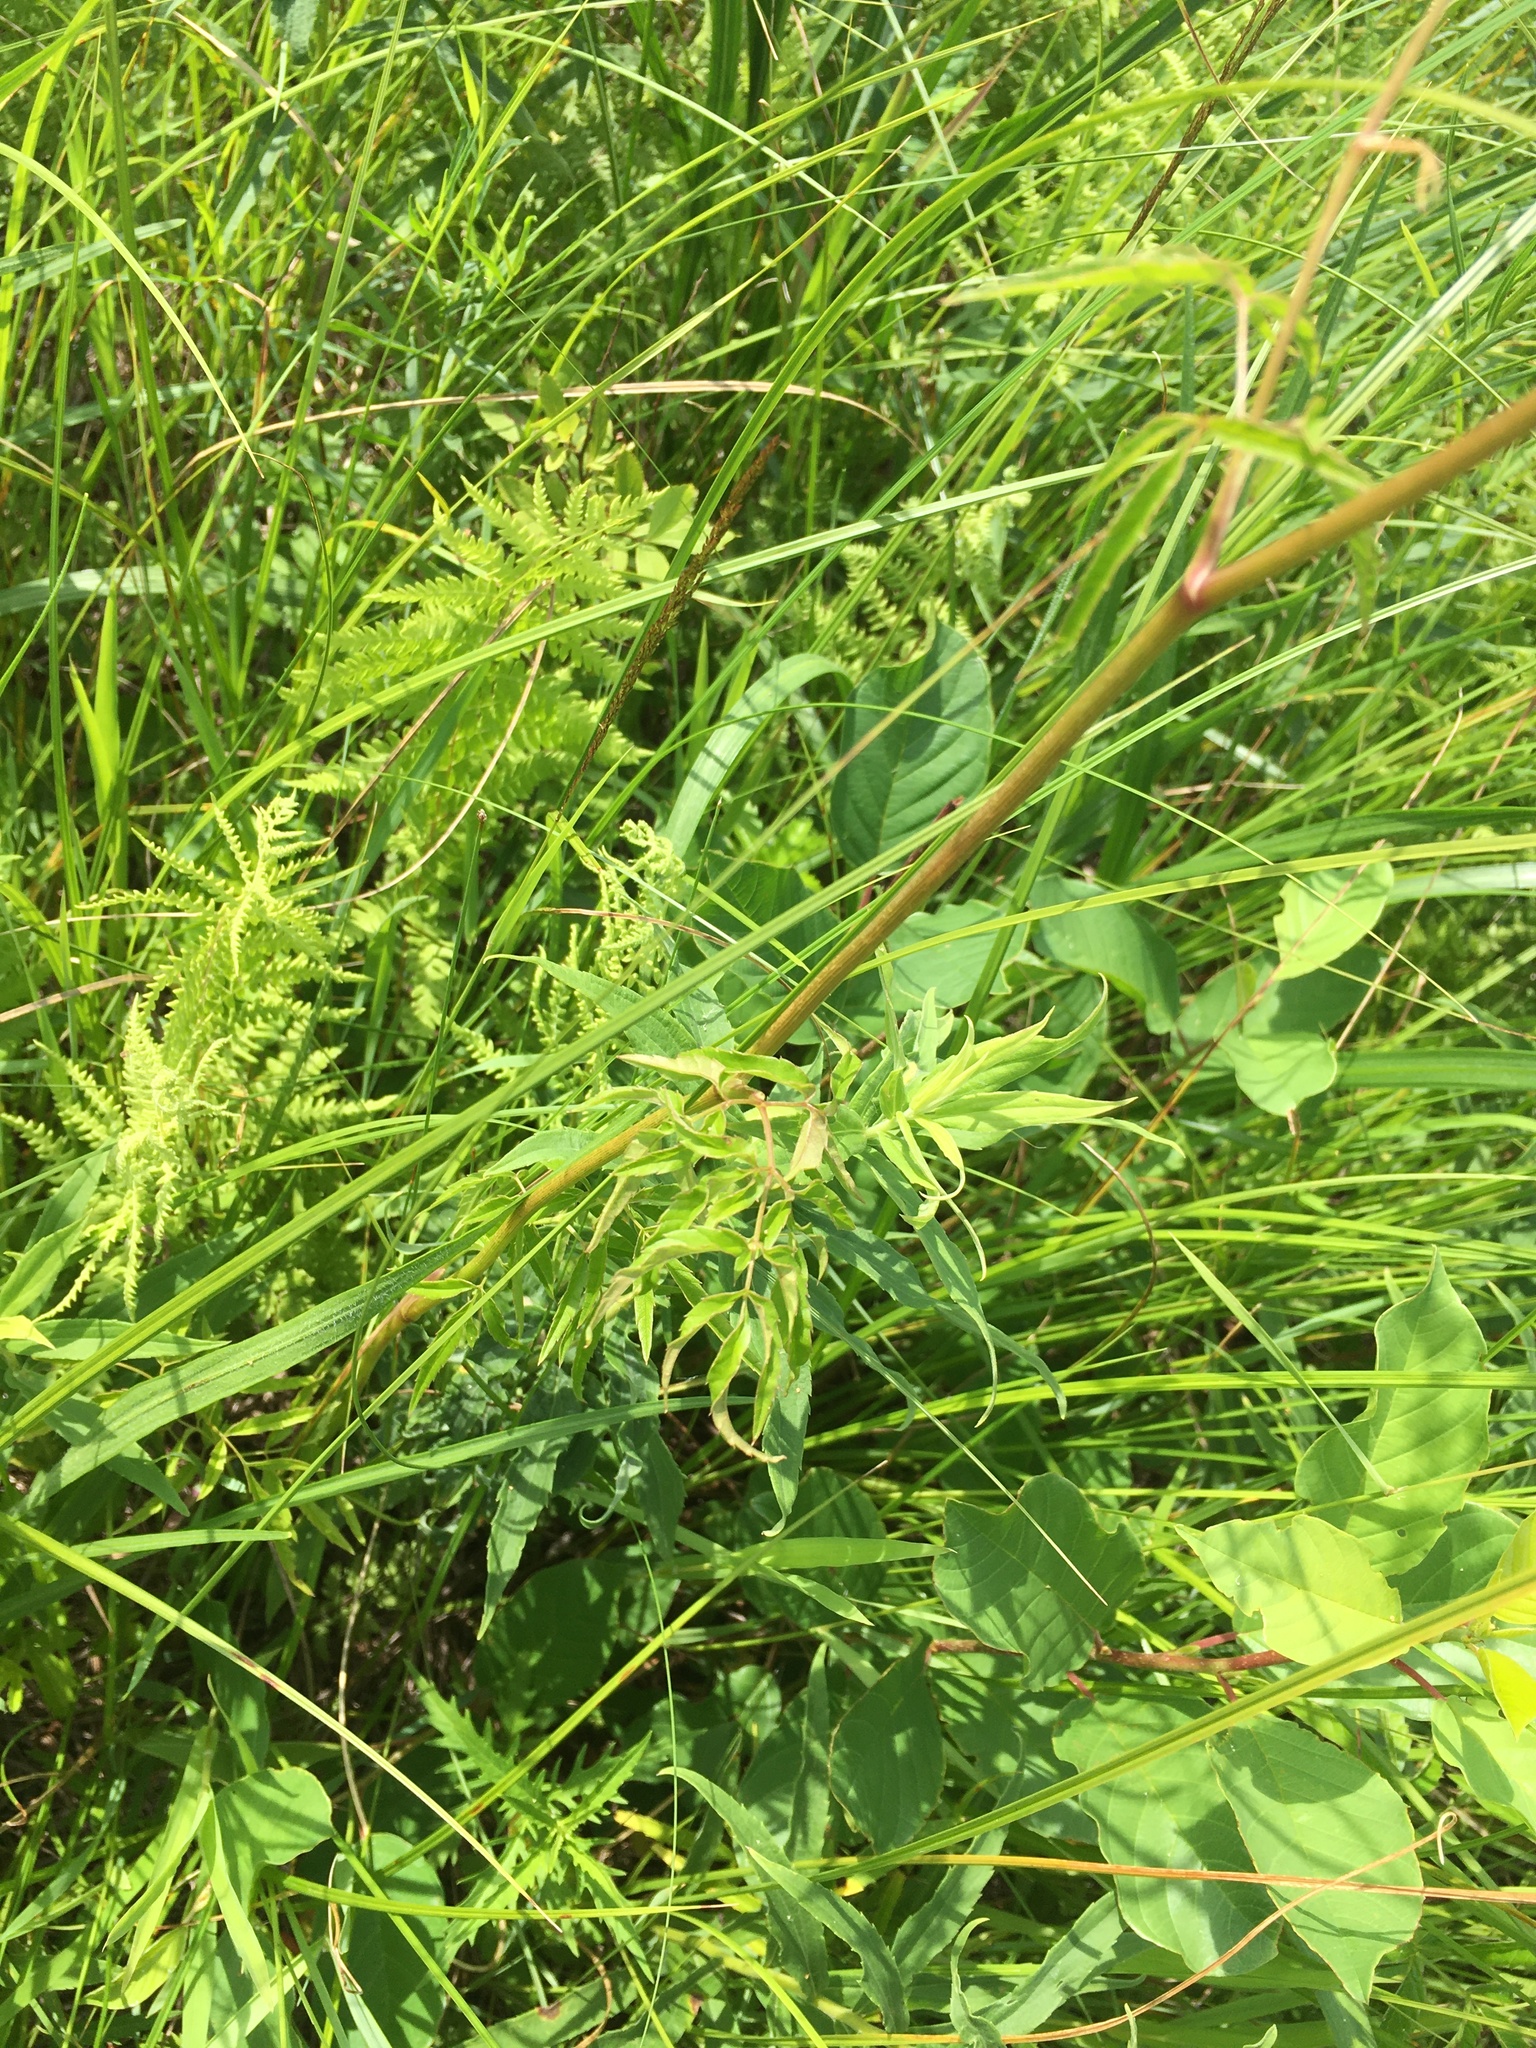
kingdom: Plantae
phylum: Tracheophyta
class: Magnoliopsida
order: Apiales
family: Apiaceae
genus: Cicuta
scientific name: Cicuta maculata
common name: Spotted cowbane
